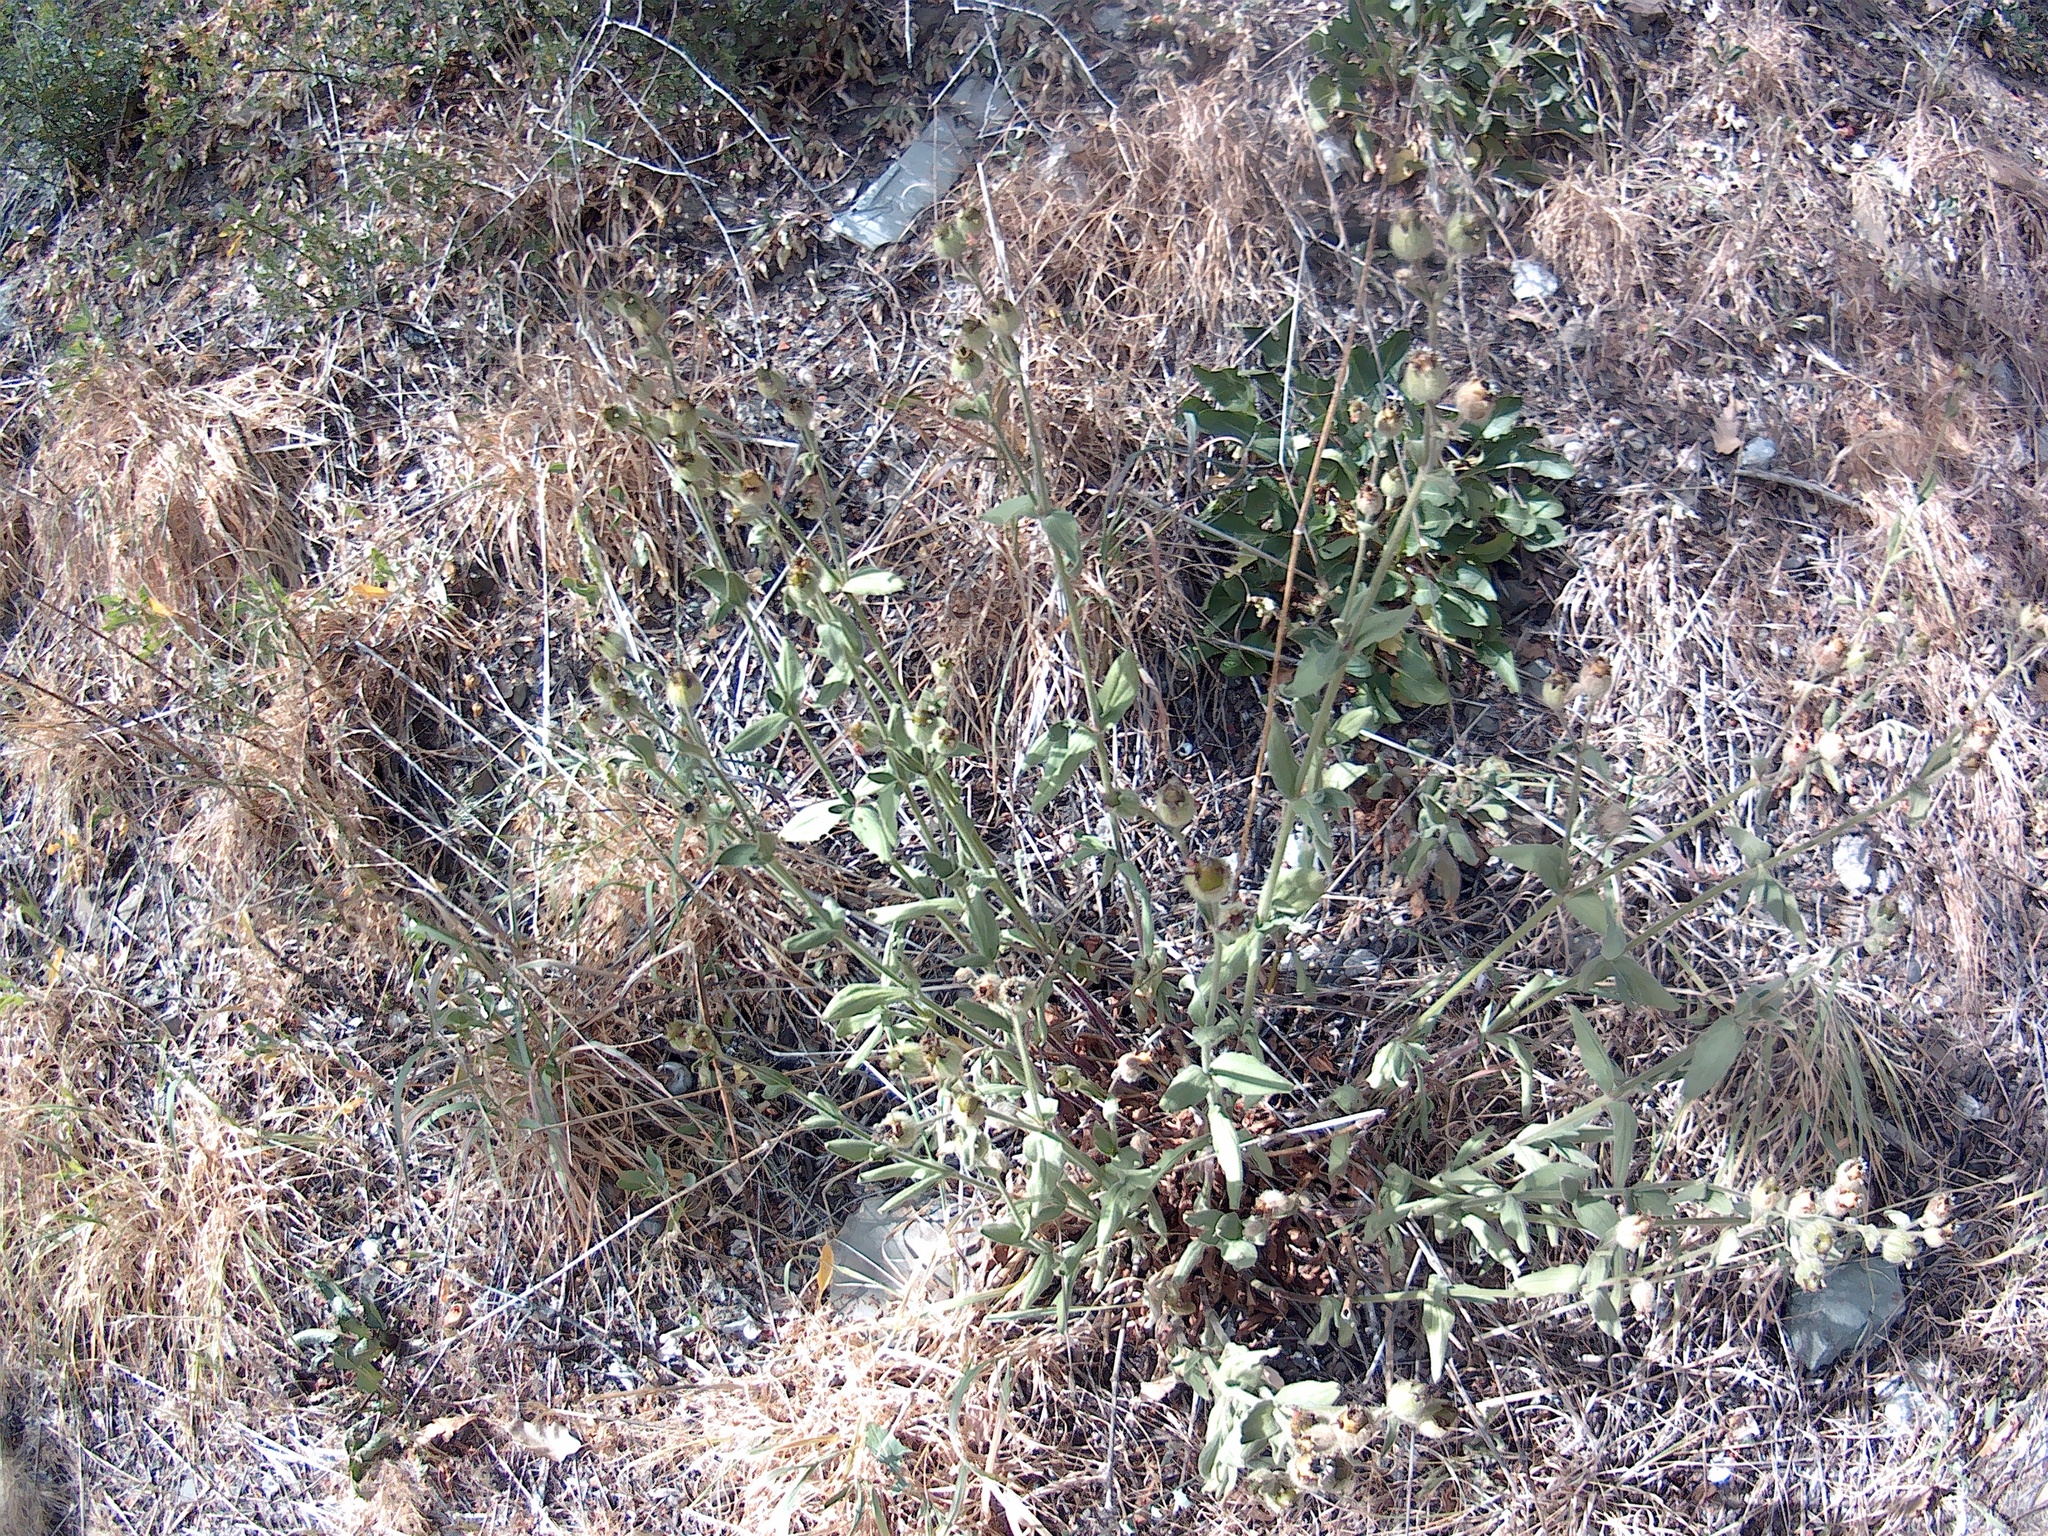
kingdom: Plantae
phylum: Tracheophyta
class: Magnoliopsida
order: Caryophyllales
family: Caryophyllaceae
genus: Silene
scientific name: Silene latifolia
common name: White campion
